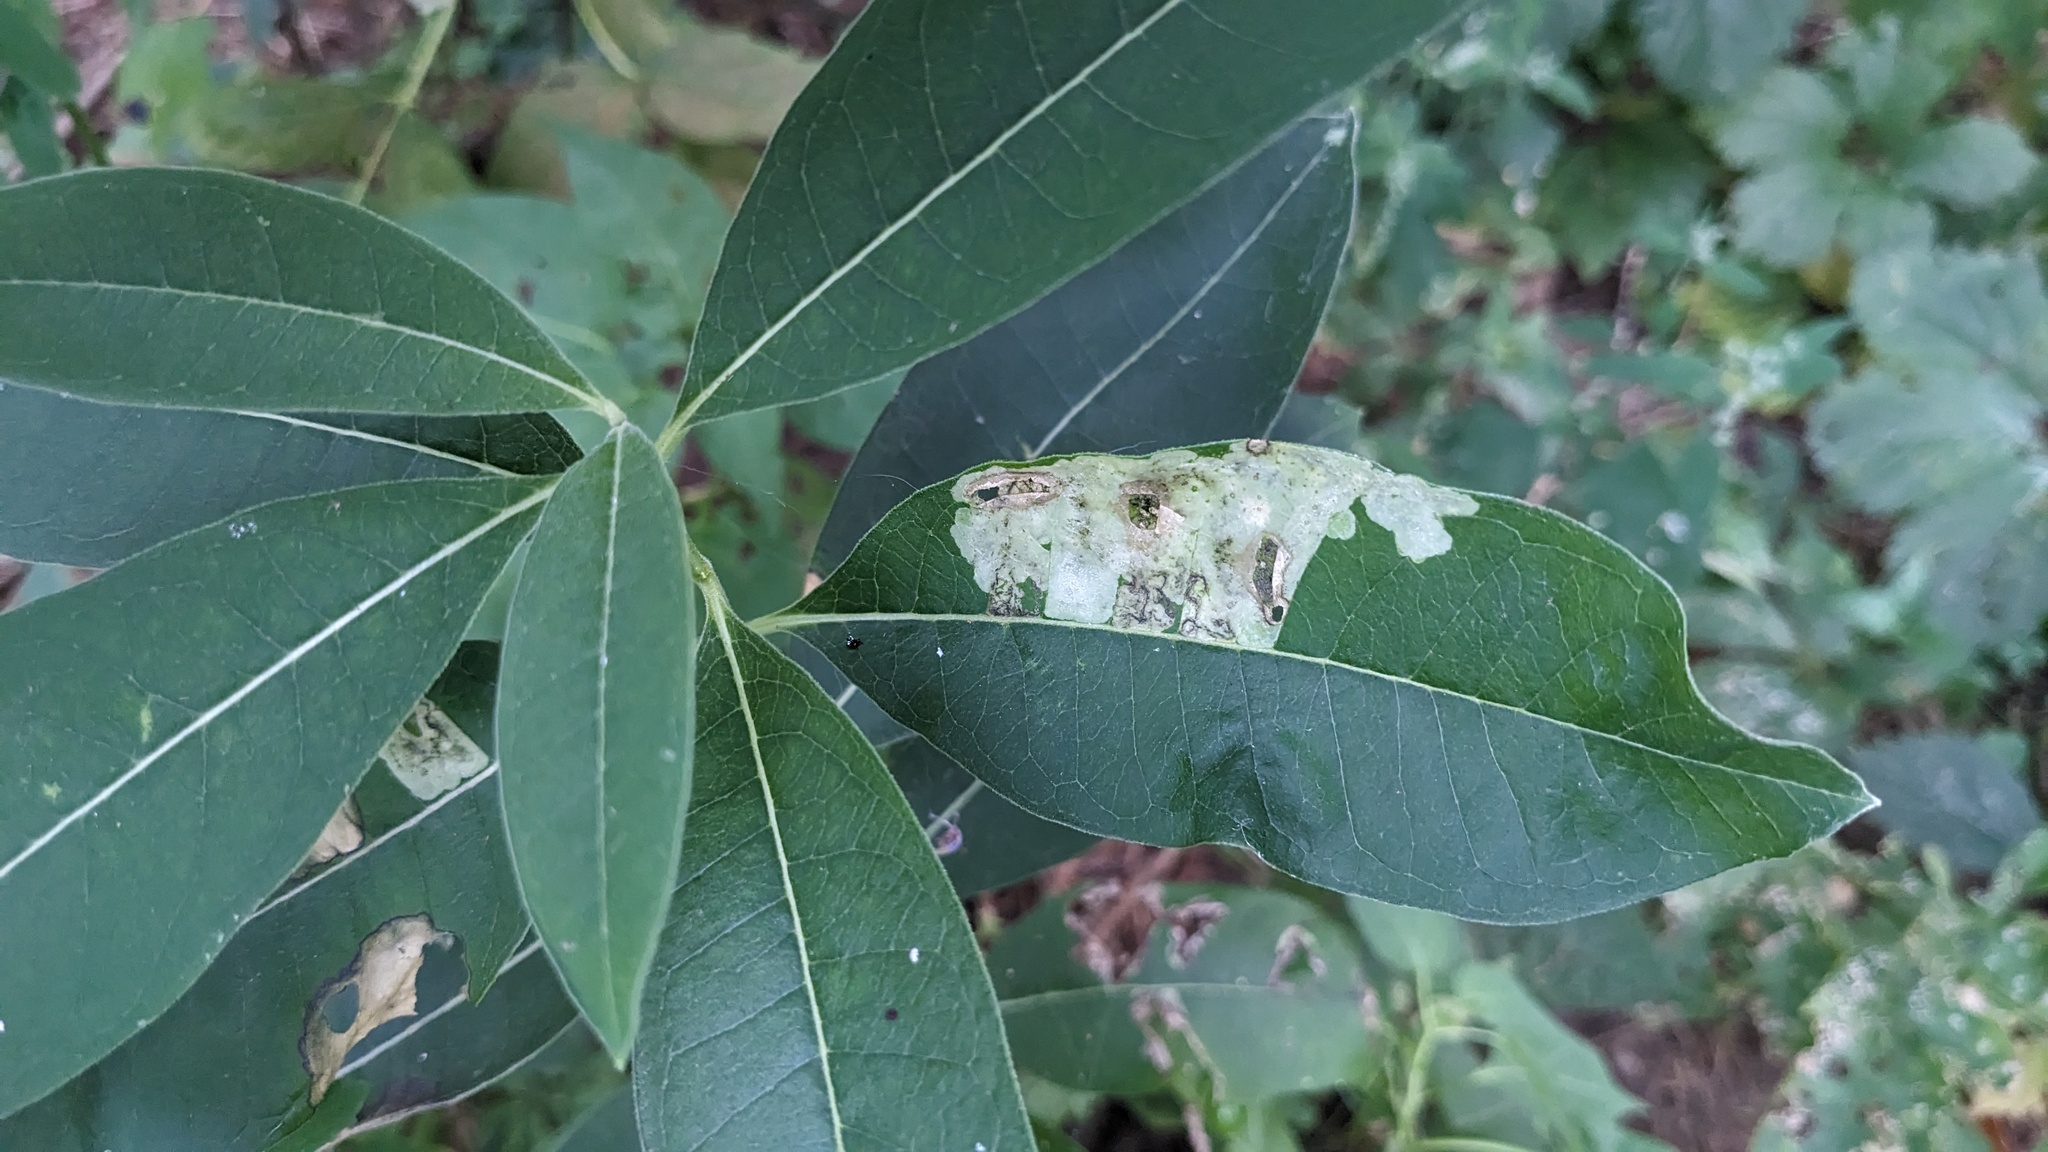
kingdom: Animalia
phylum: Arthropoda
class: Insecta
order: Diptera
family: Agromyzidae
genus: Liriomyza
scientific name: Liriomyza asclepiadis
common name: Milkweed leaf-miner fly
